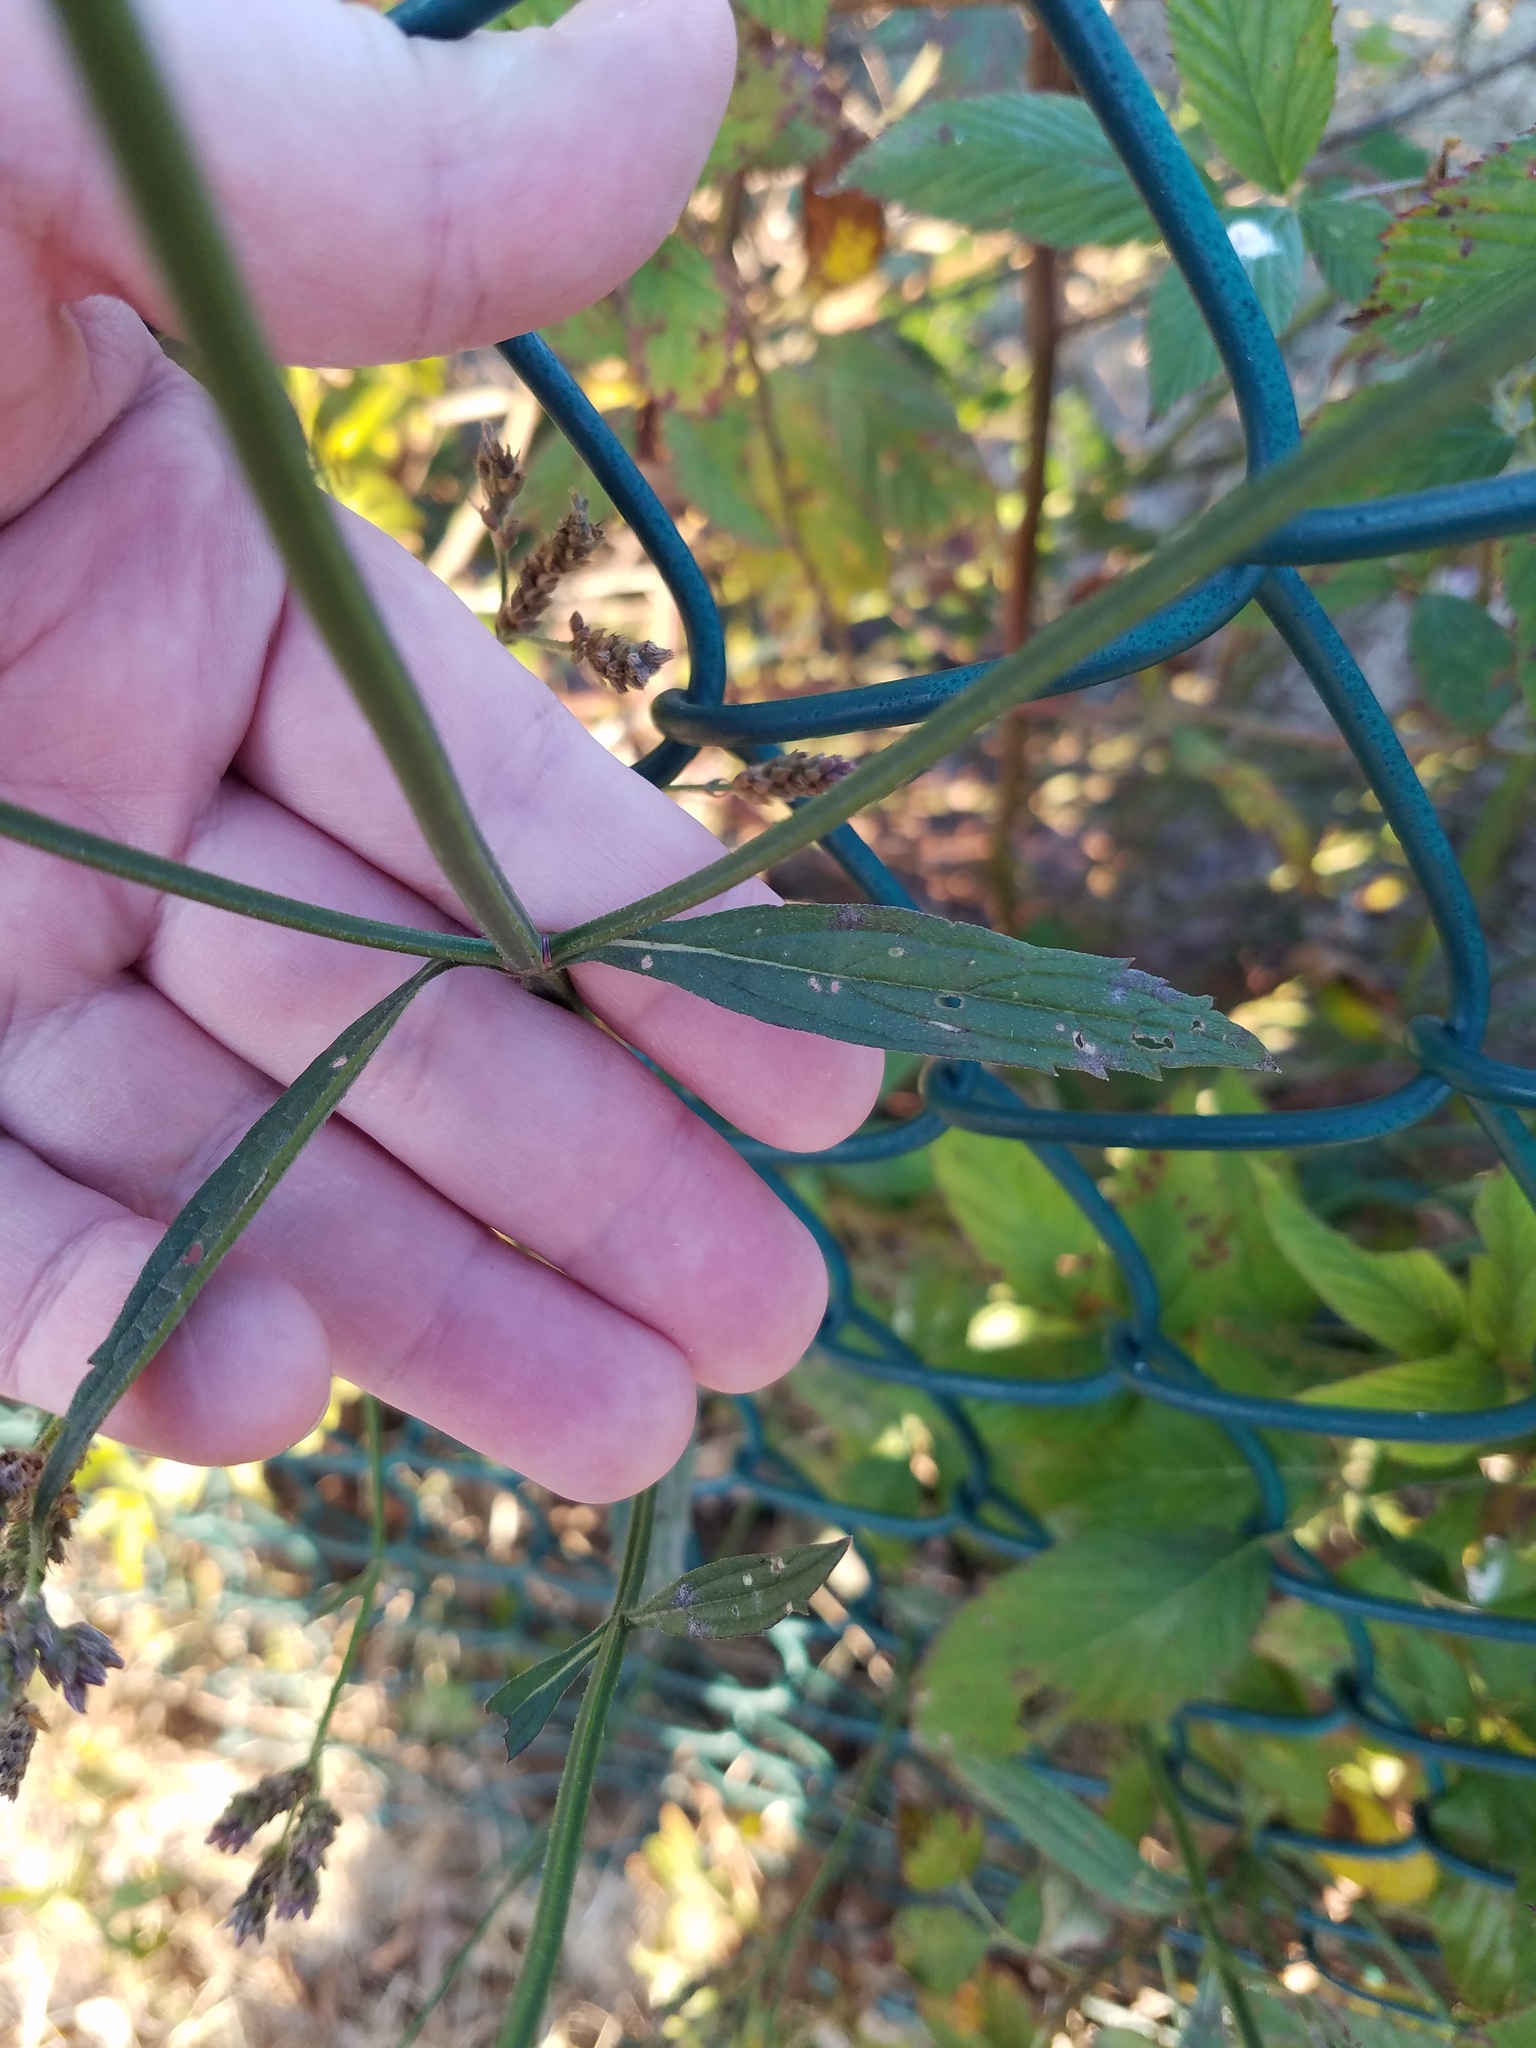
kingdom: Plantae
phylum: Tracheophyta
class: Magnoliopsida
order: Lamiales
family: Verbenaceae
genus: Verbena
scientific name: Verbena brasiliensis
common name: Brazilian vervain
